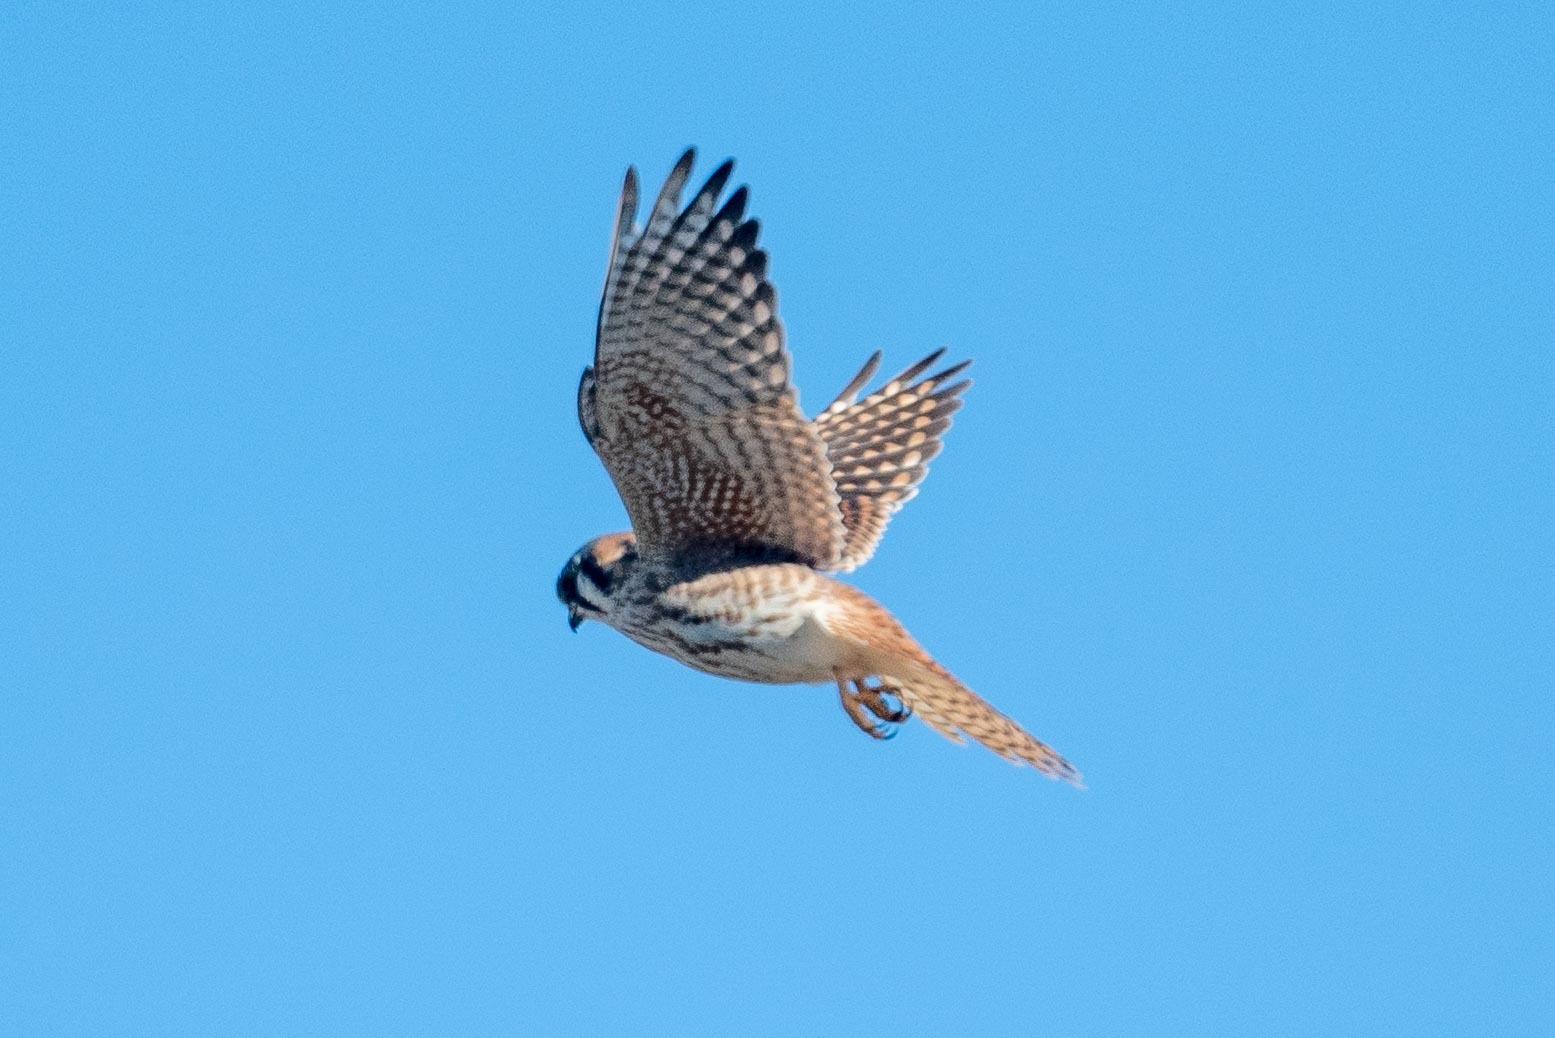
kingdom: Animalia
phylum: Chordata
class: Aves
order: Falconiformes
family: Falconidae
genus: Falco
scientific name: Falco sparverius
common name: American kestrel
